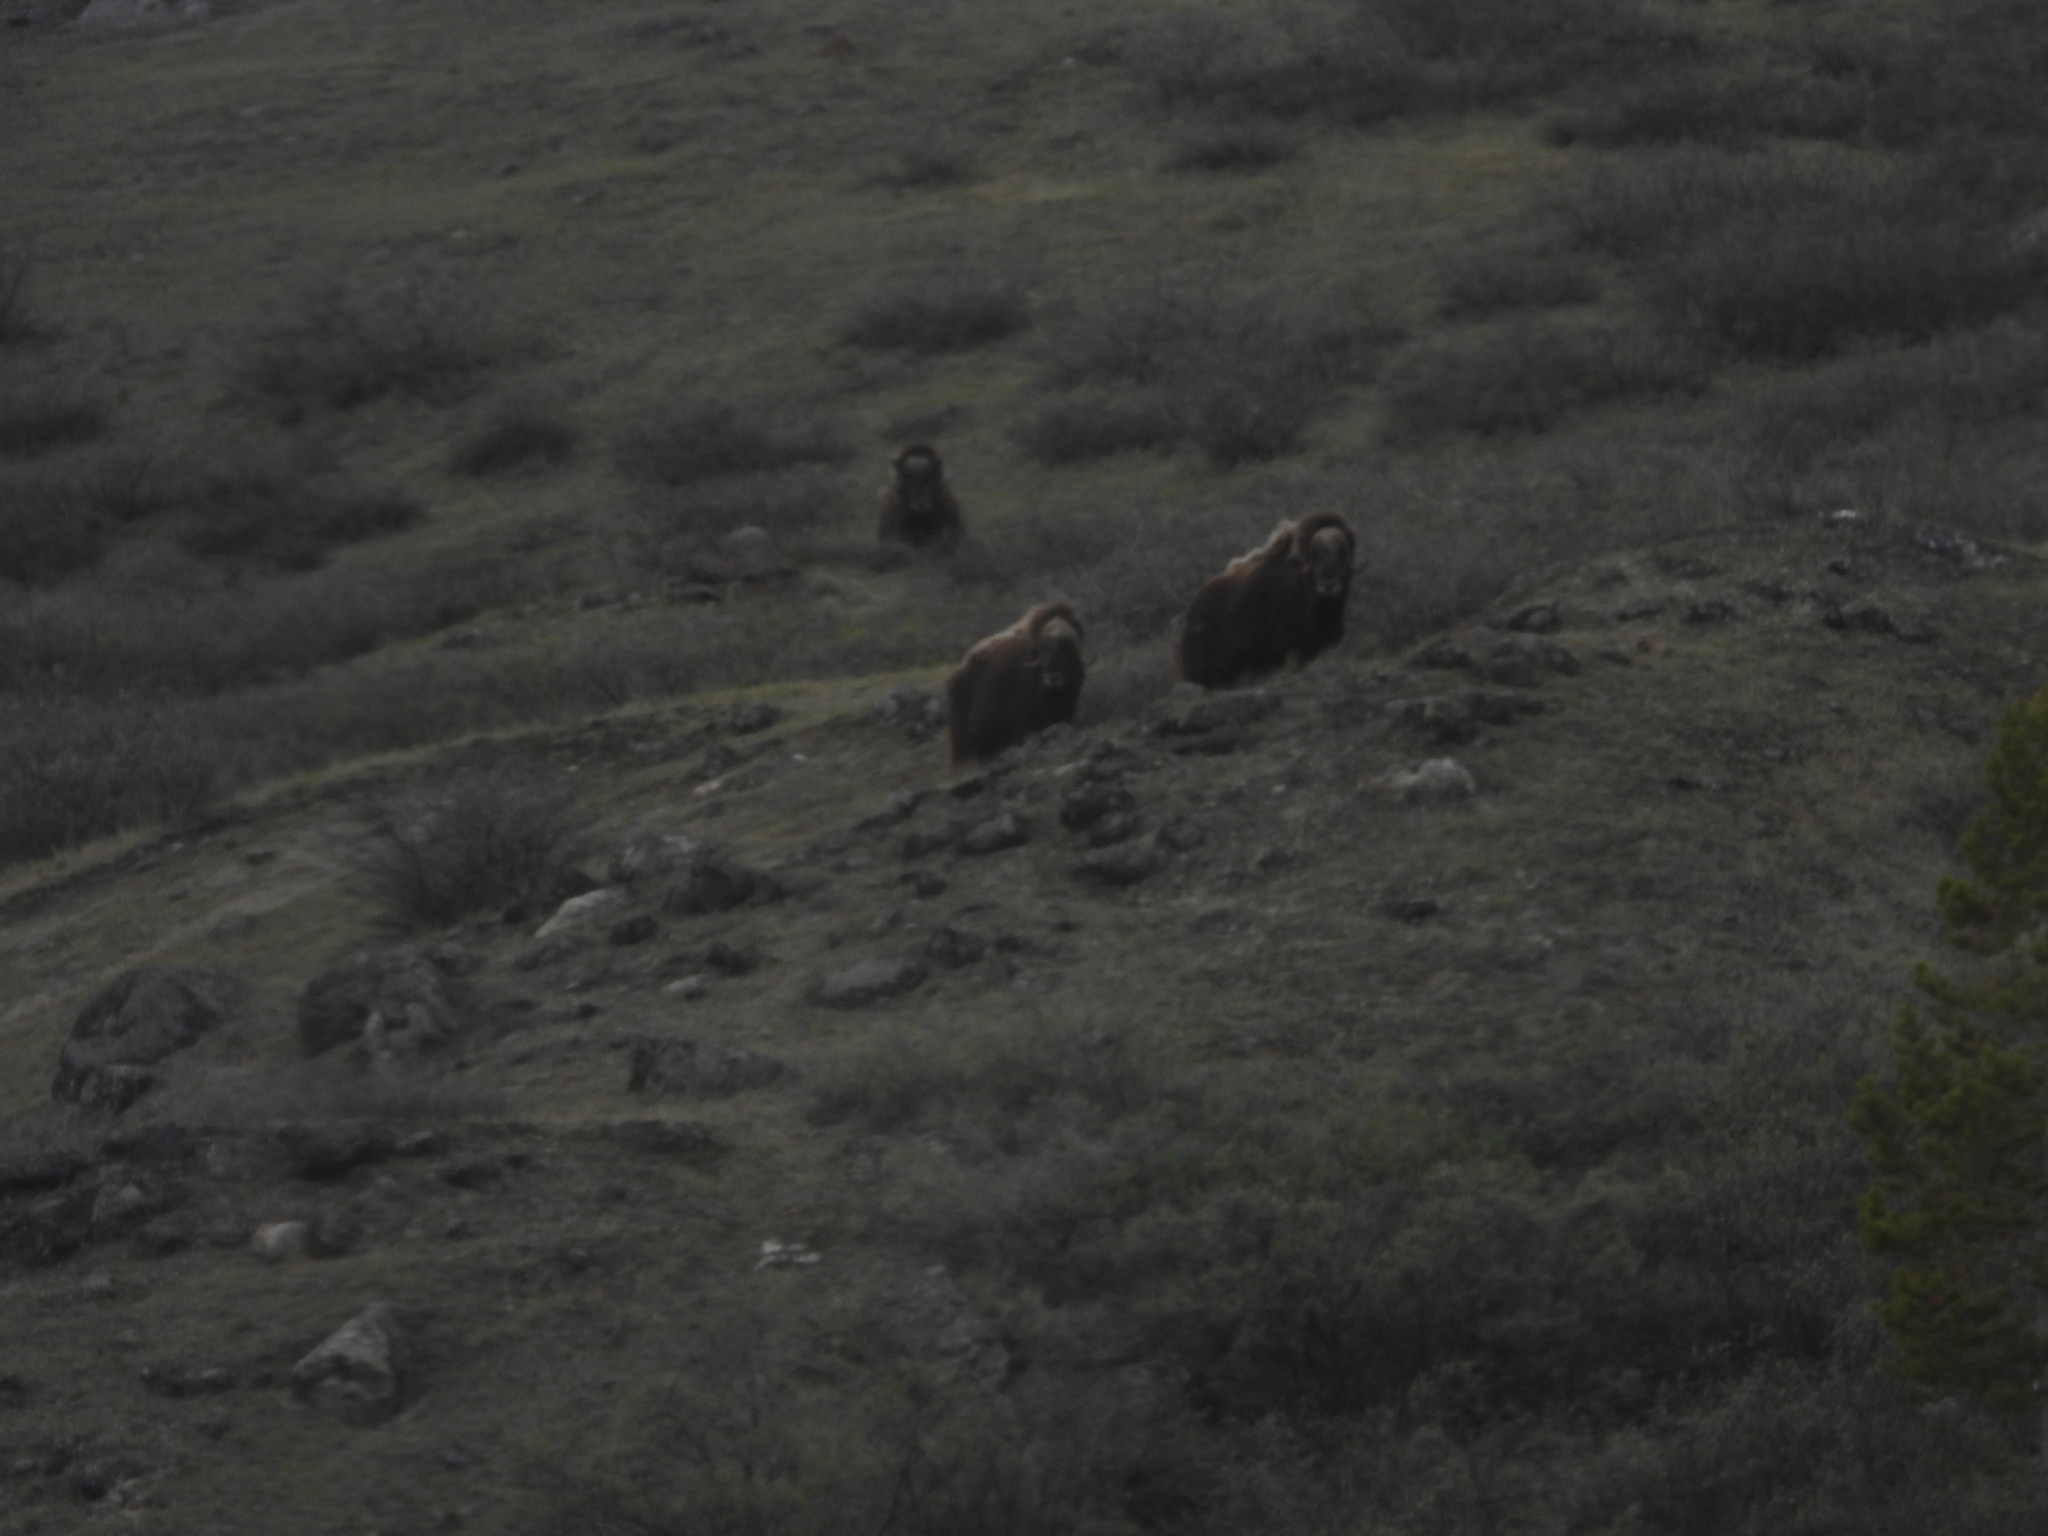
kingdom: Animalia
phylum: Chordata
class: Mammalia
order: Artiodactyla
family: Bovidae
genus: Ovibos
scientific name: Ovibos moschatus
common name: Muskox
